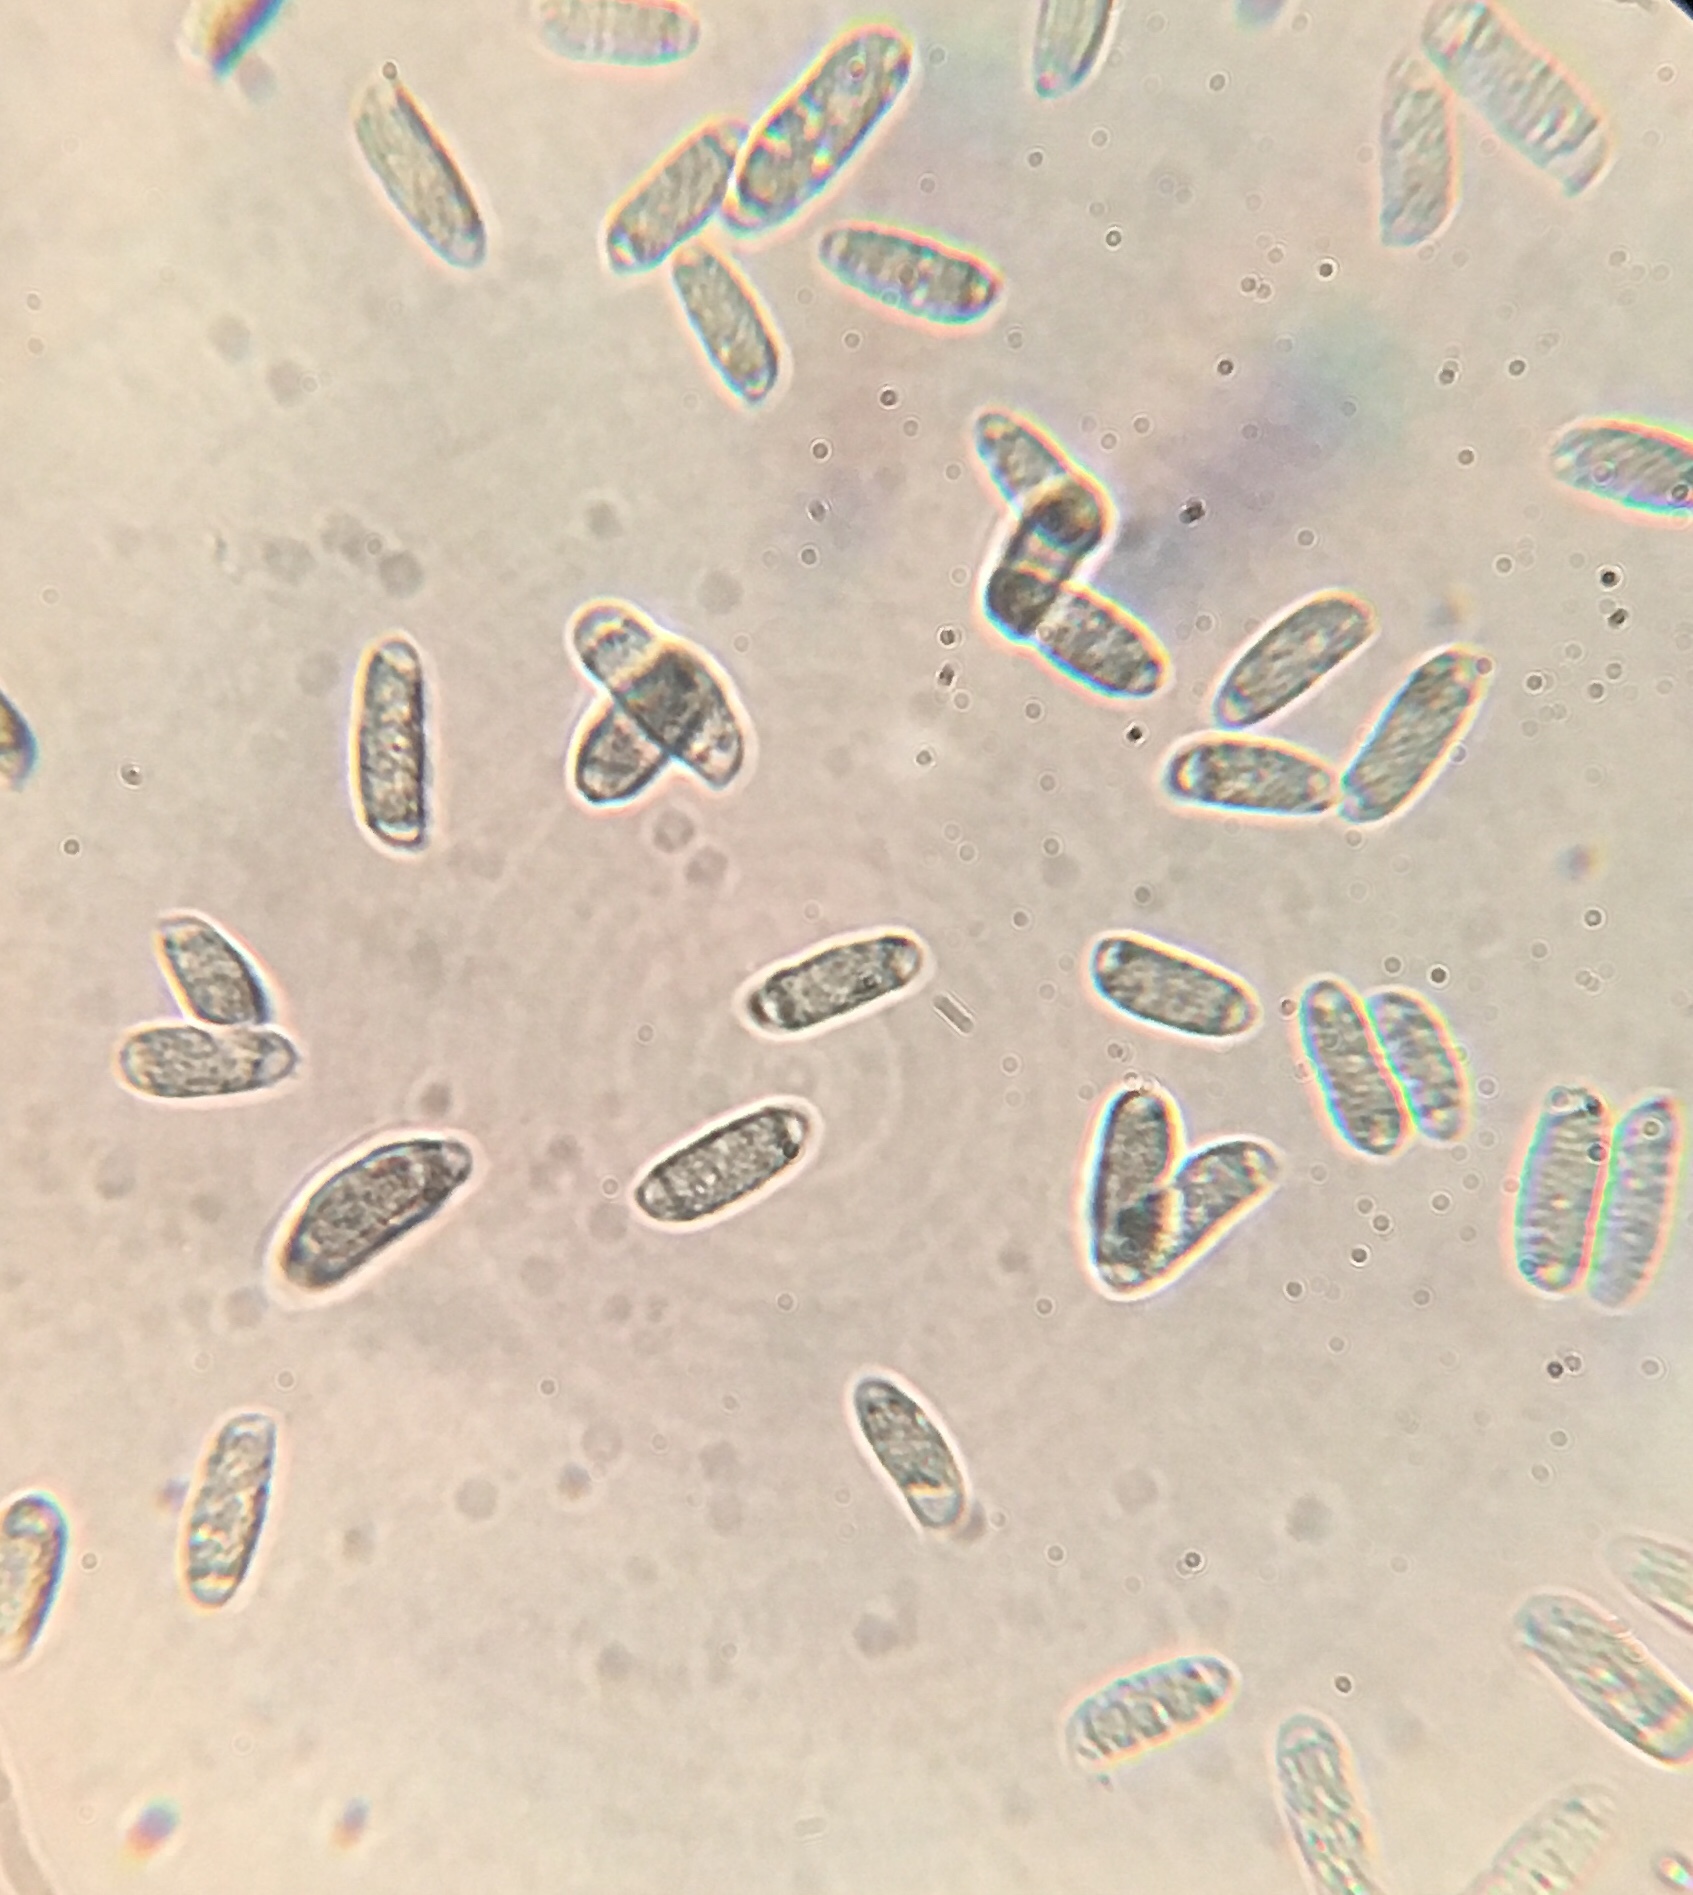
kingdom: Fungi
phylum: Basidiomycota
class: Agaricomycetes
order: Agaricales
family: Amanitaceae
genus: Amanita
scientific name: Amanita subsolitaria
